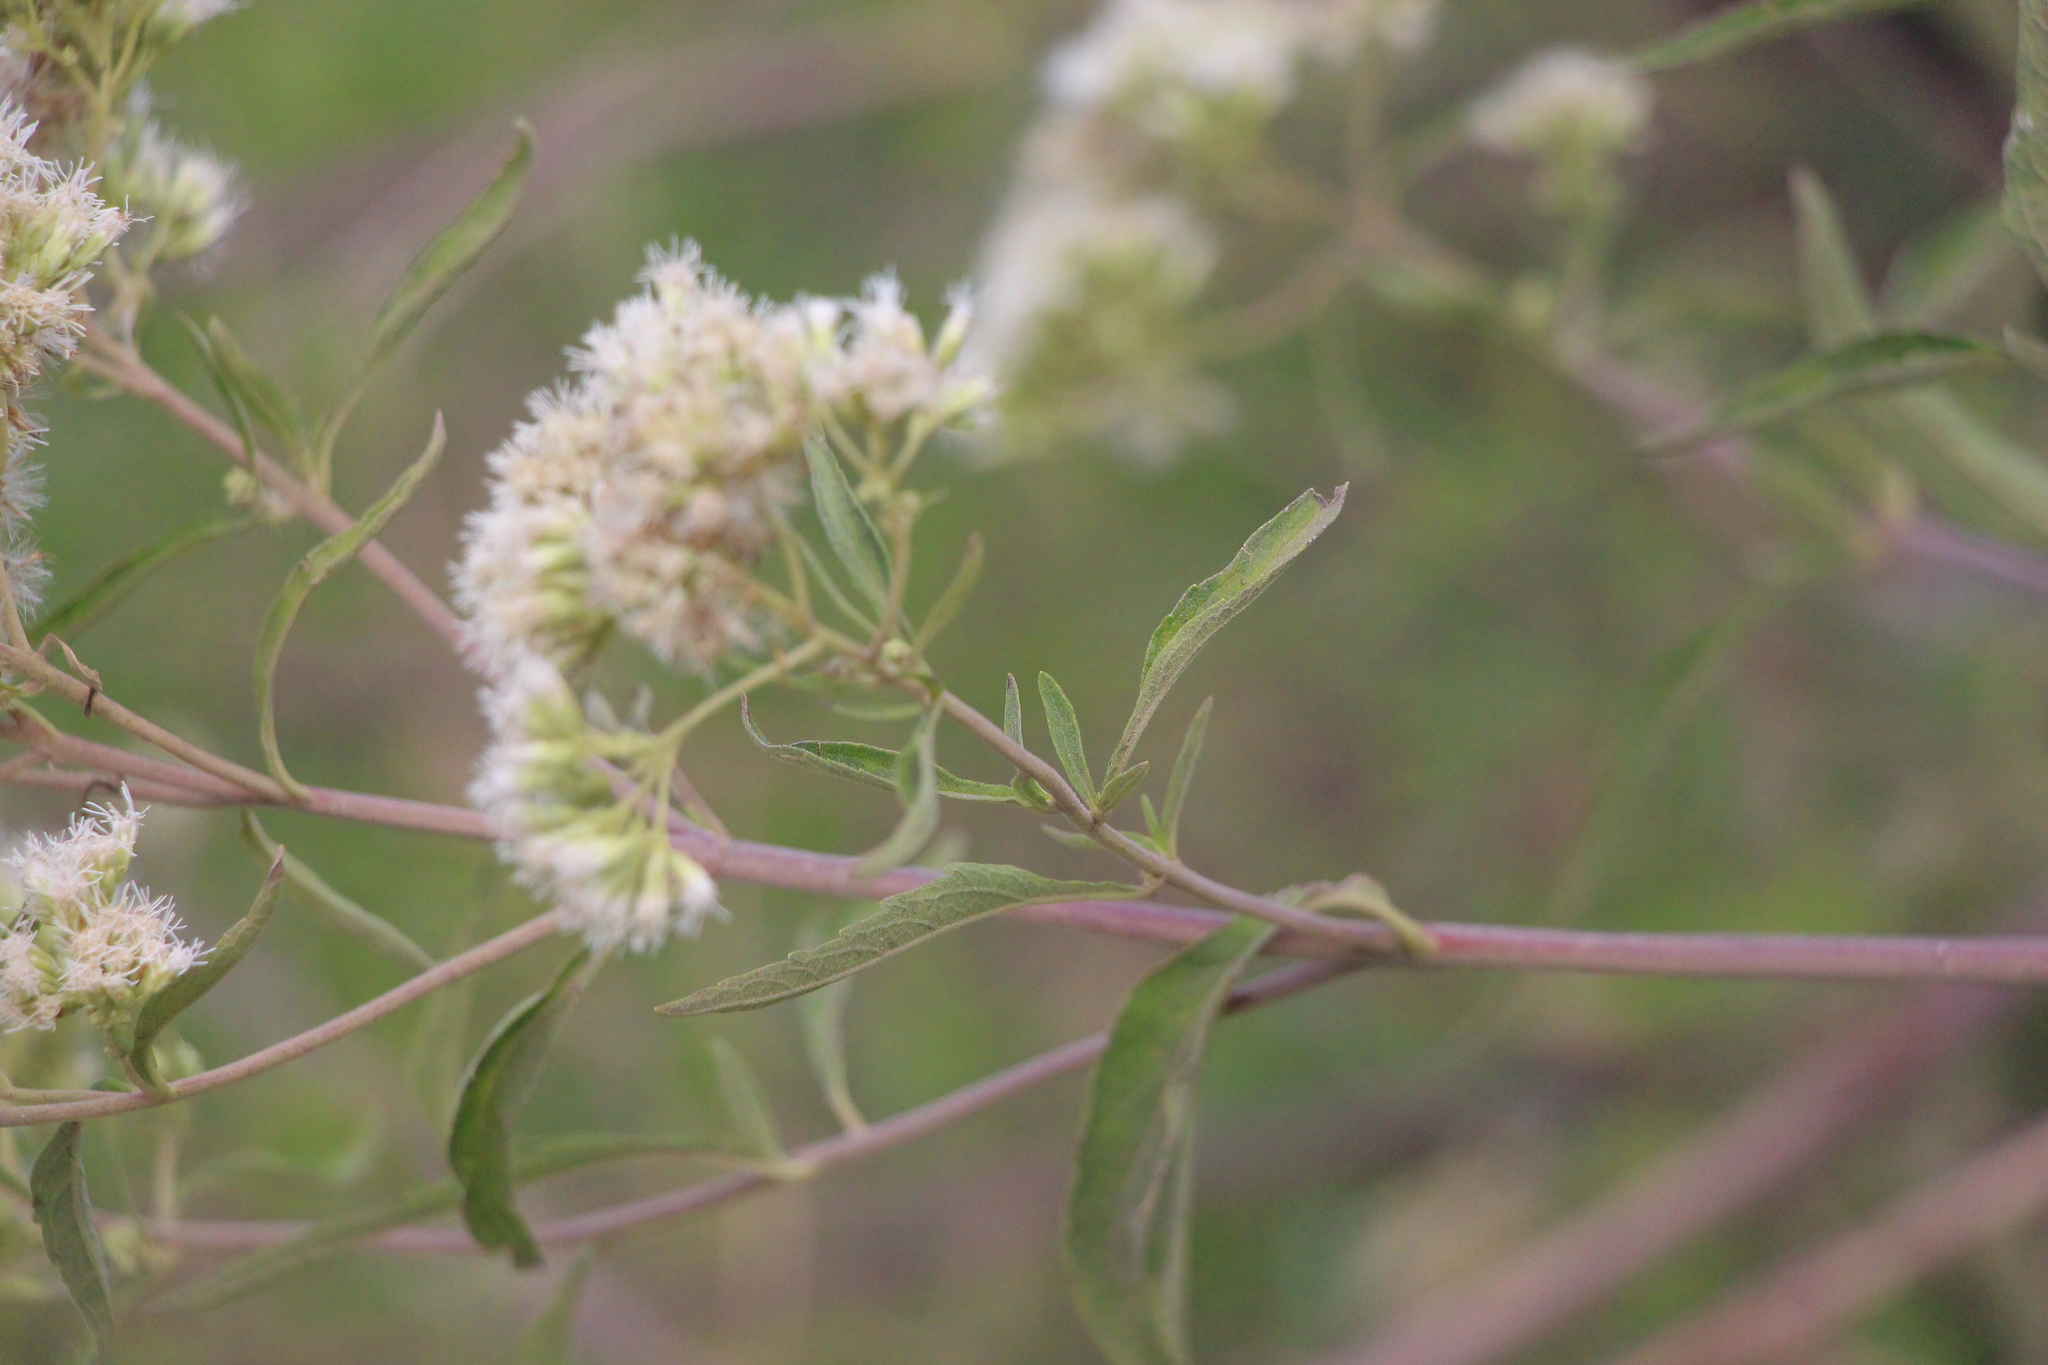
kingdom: Plantae
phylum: Tracheophyta
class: Magnoliopsida
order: Asterales
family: Asteraceae
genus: Austroeupatorium
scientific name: Austroeupatorium inulifolium
